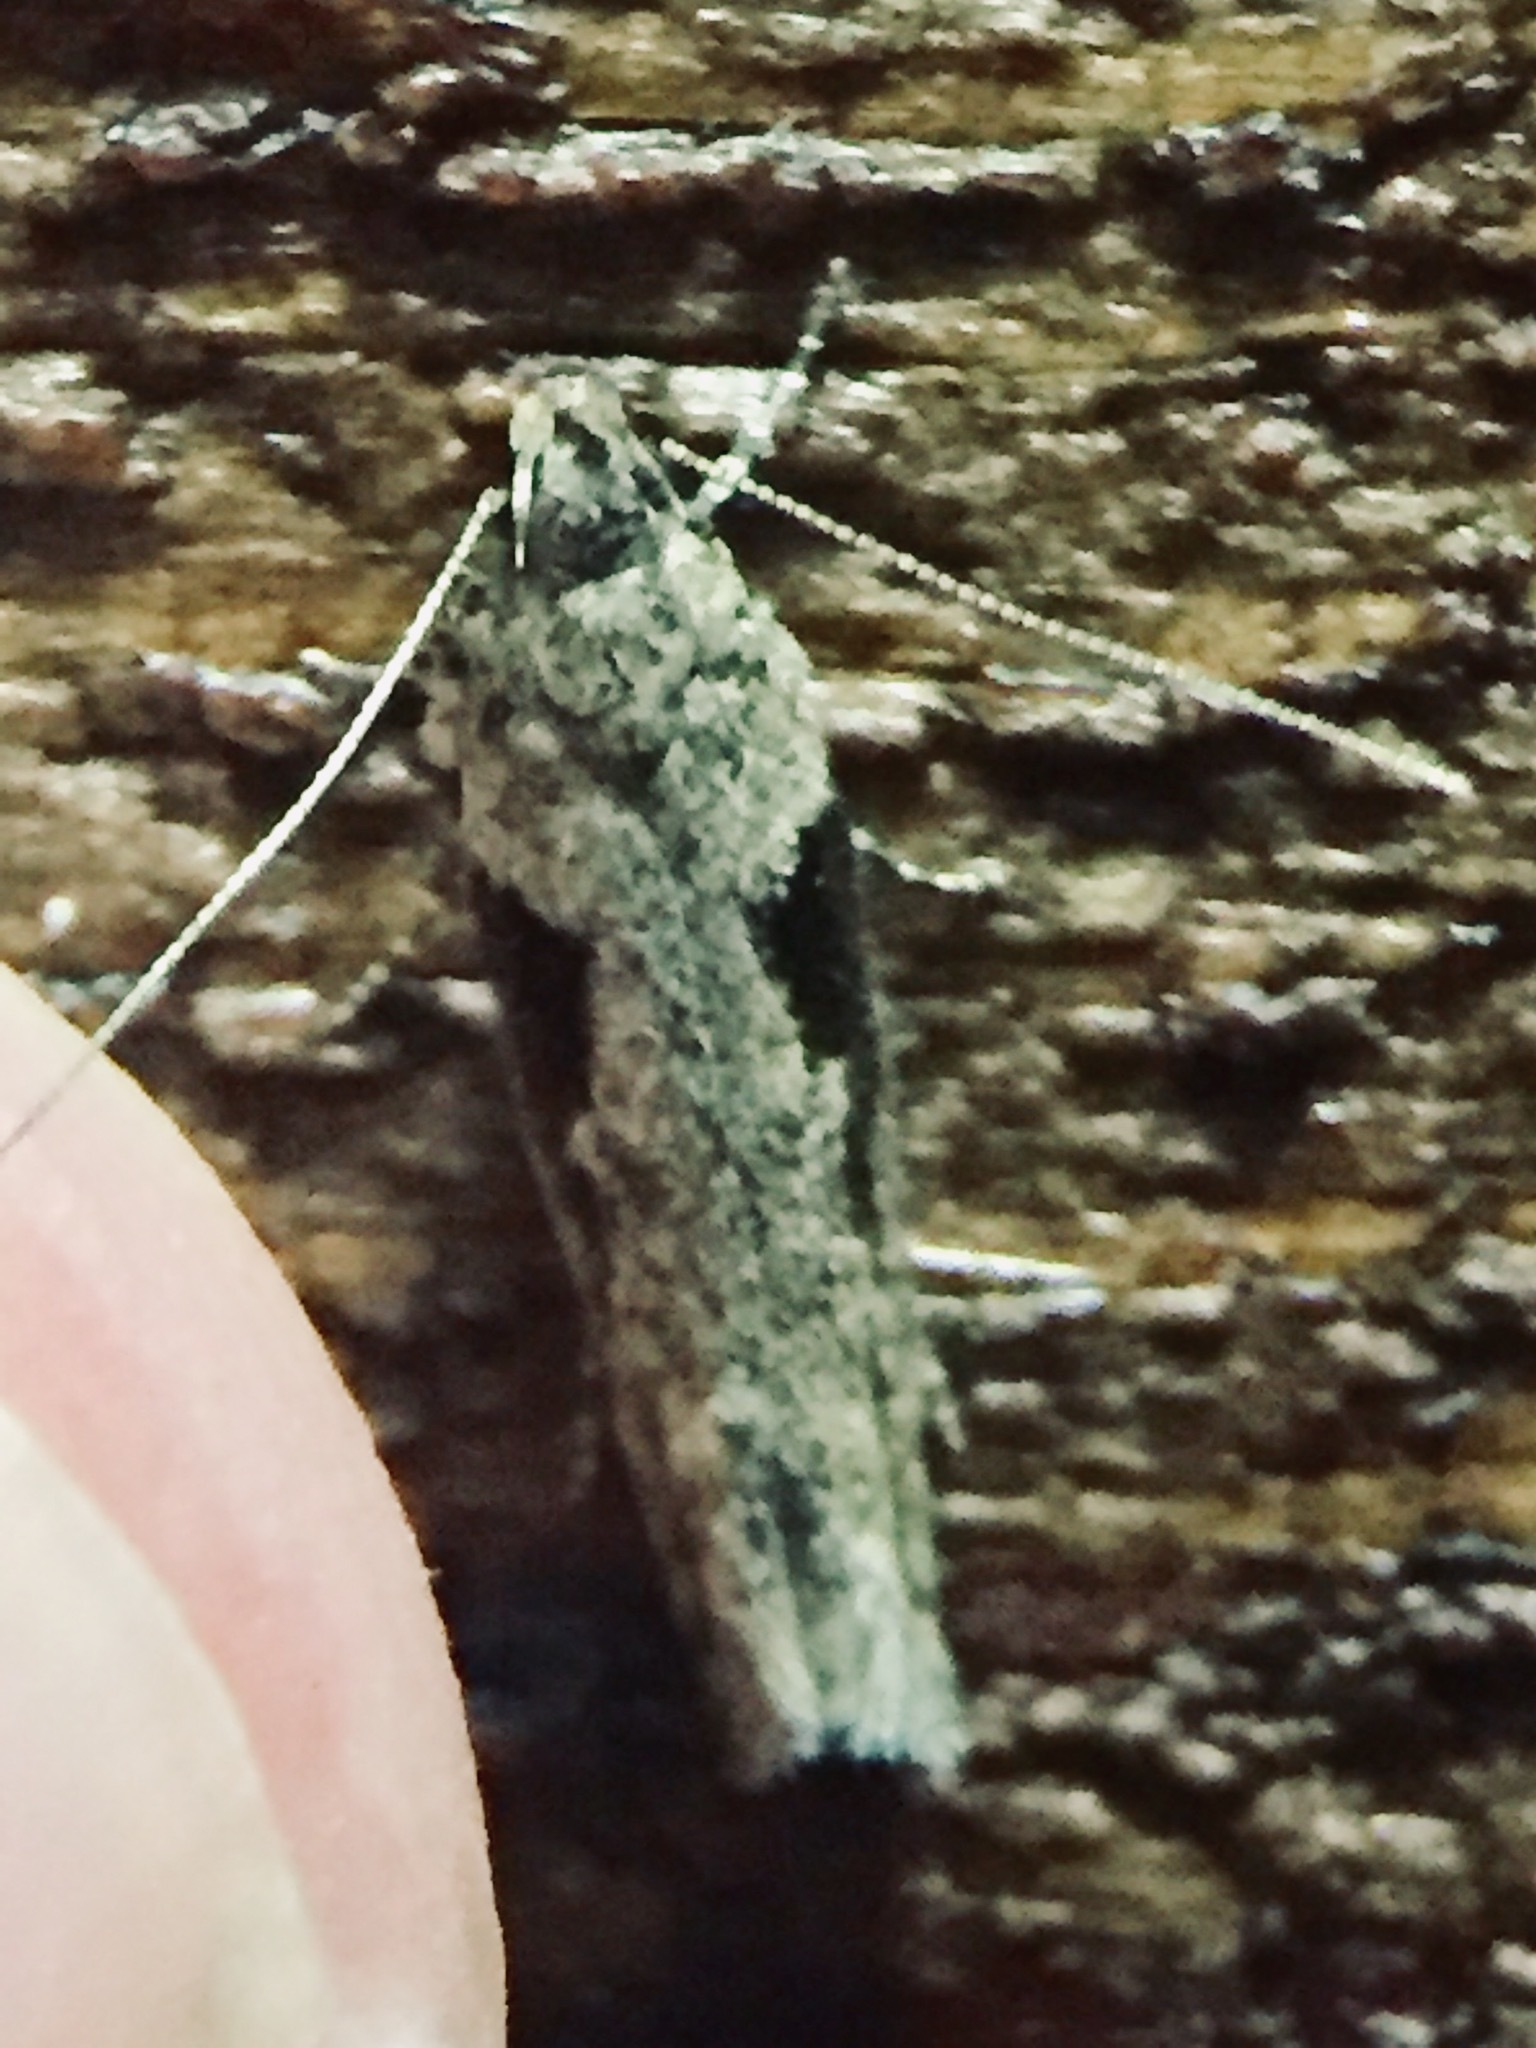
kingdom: Animalia
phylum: Arthropoda
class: Insecta
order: Lepidoptera
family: Gelechiidae
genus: Symmetrischema
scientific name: Symmetrischema tangolias
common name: Moth
